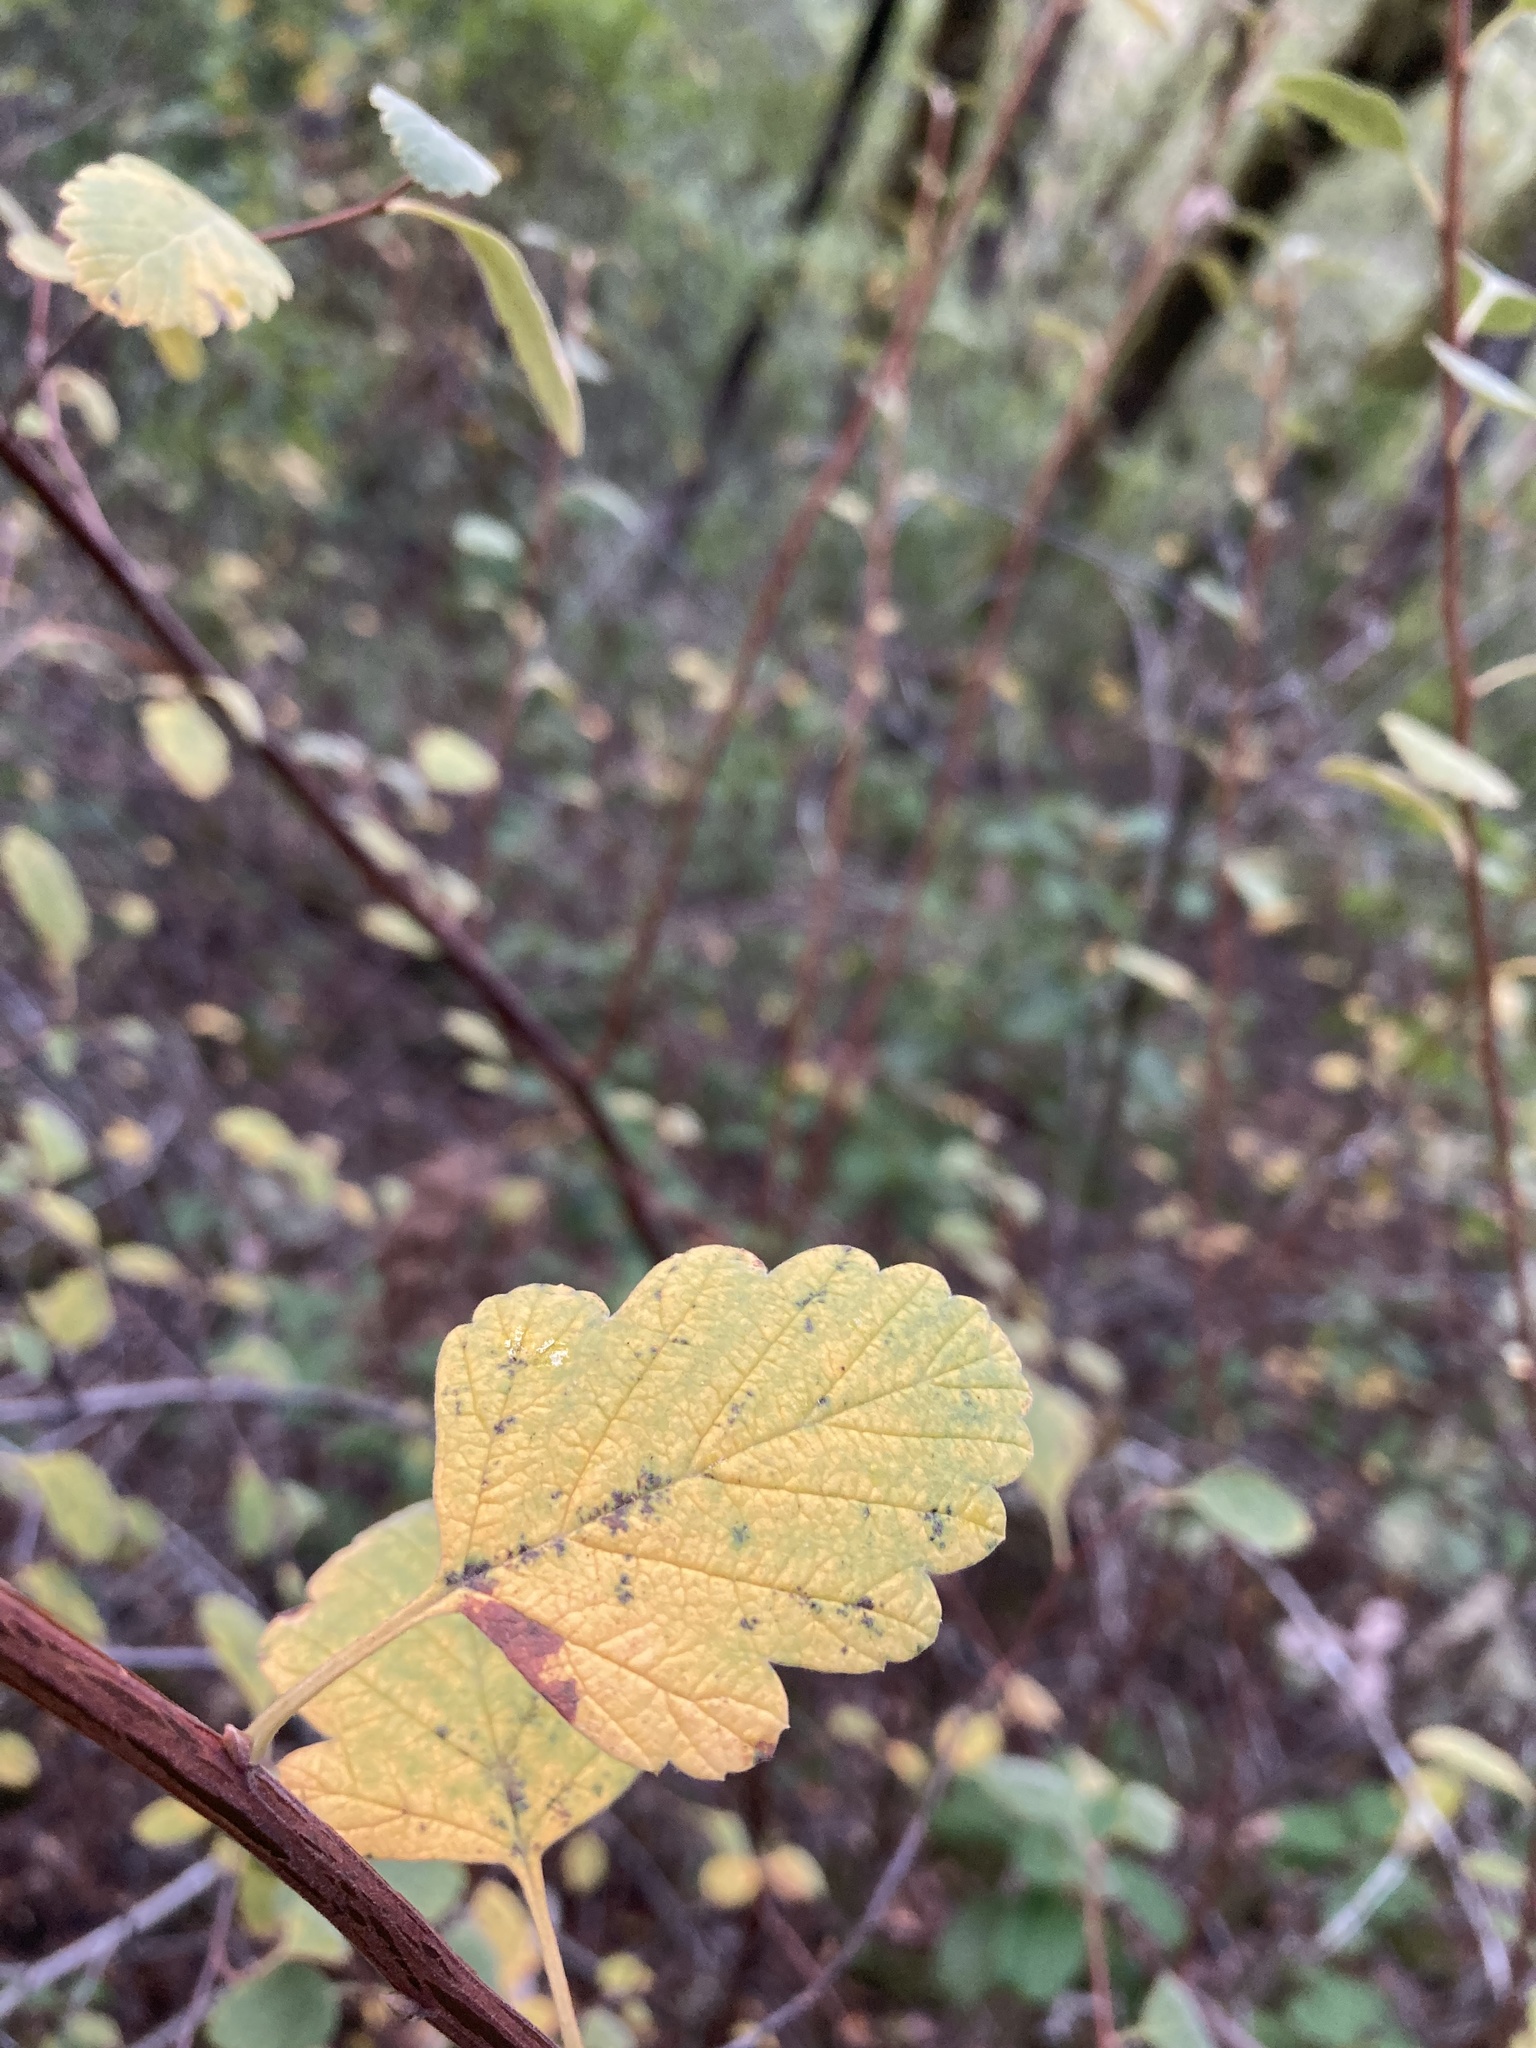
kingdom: Plantae
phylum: Tracheophyta
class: Magnoliopsida
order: Rosales
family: Rosaceae
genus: Holodiscus
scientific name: Holodiscus discolor
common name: Oceanspray
